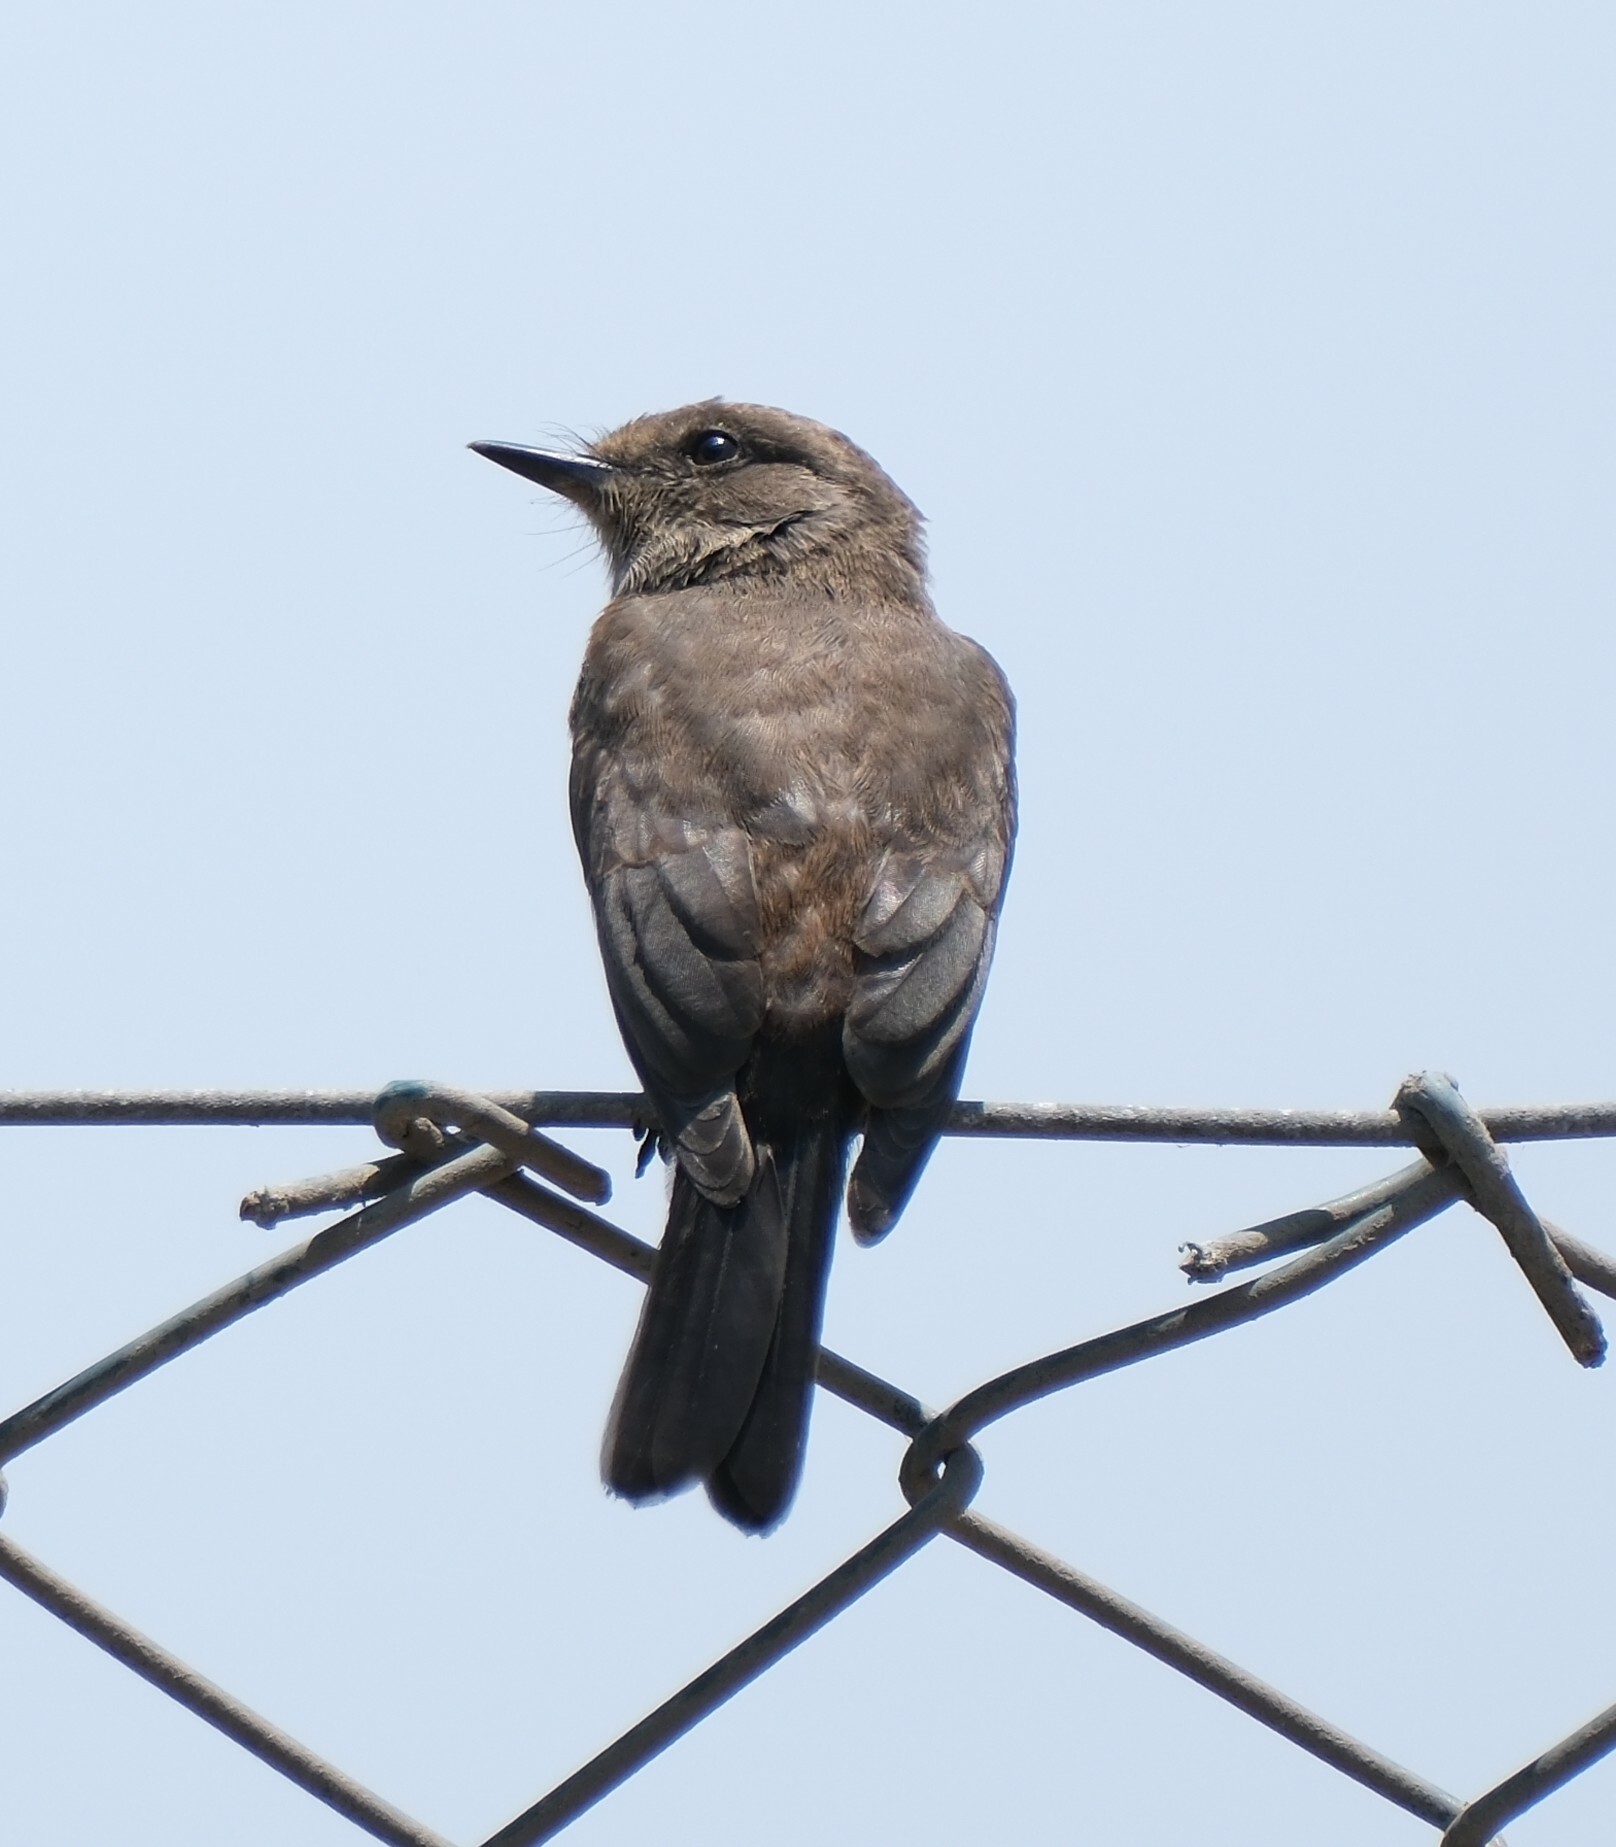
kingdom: Animalia
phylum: Chordata
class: Aves
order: Passeriformes
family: Tyrannidae
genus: Pyrocephalus
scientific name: Pyrocephalus rubinus
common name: Vermilion flycatcher
